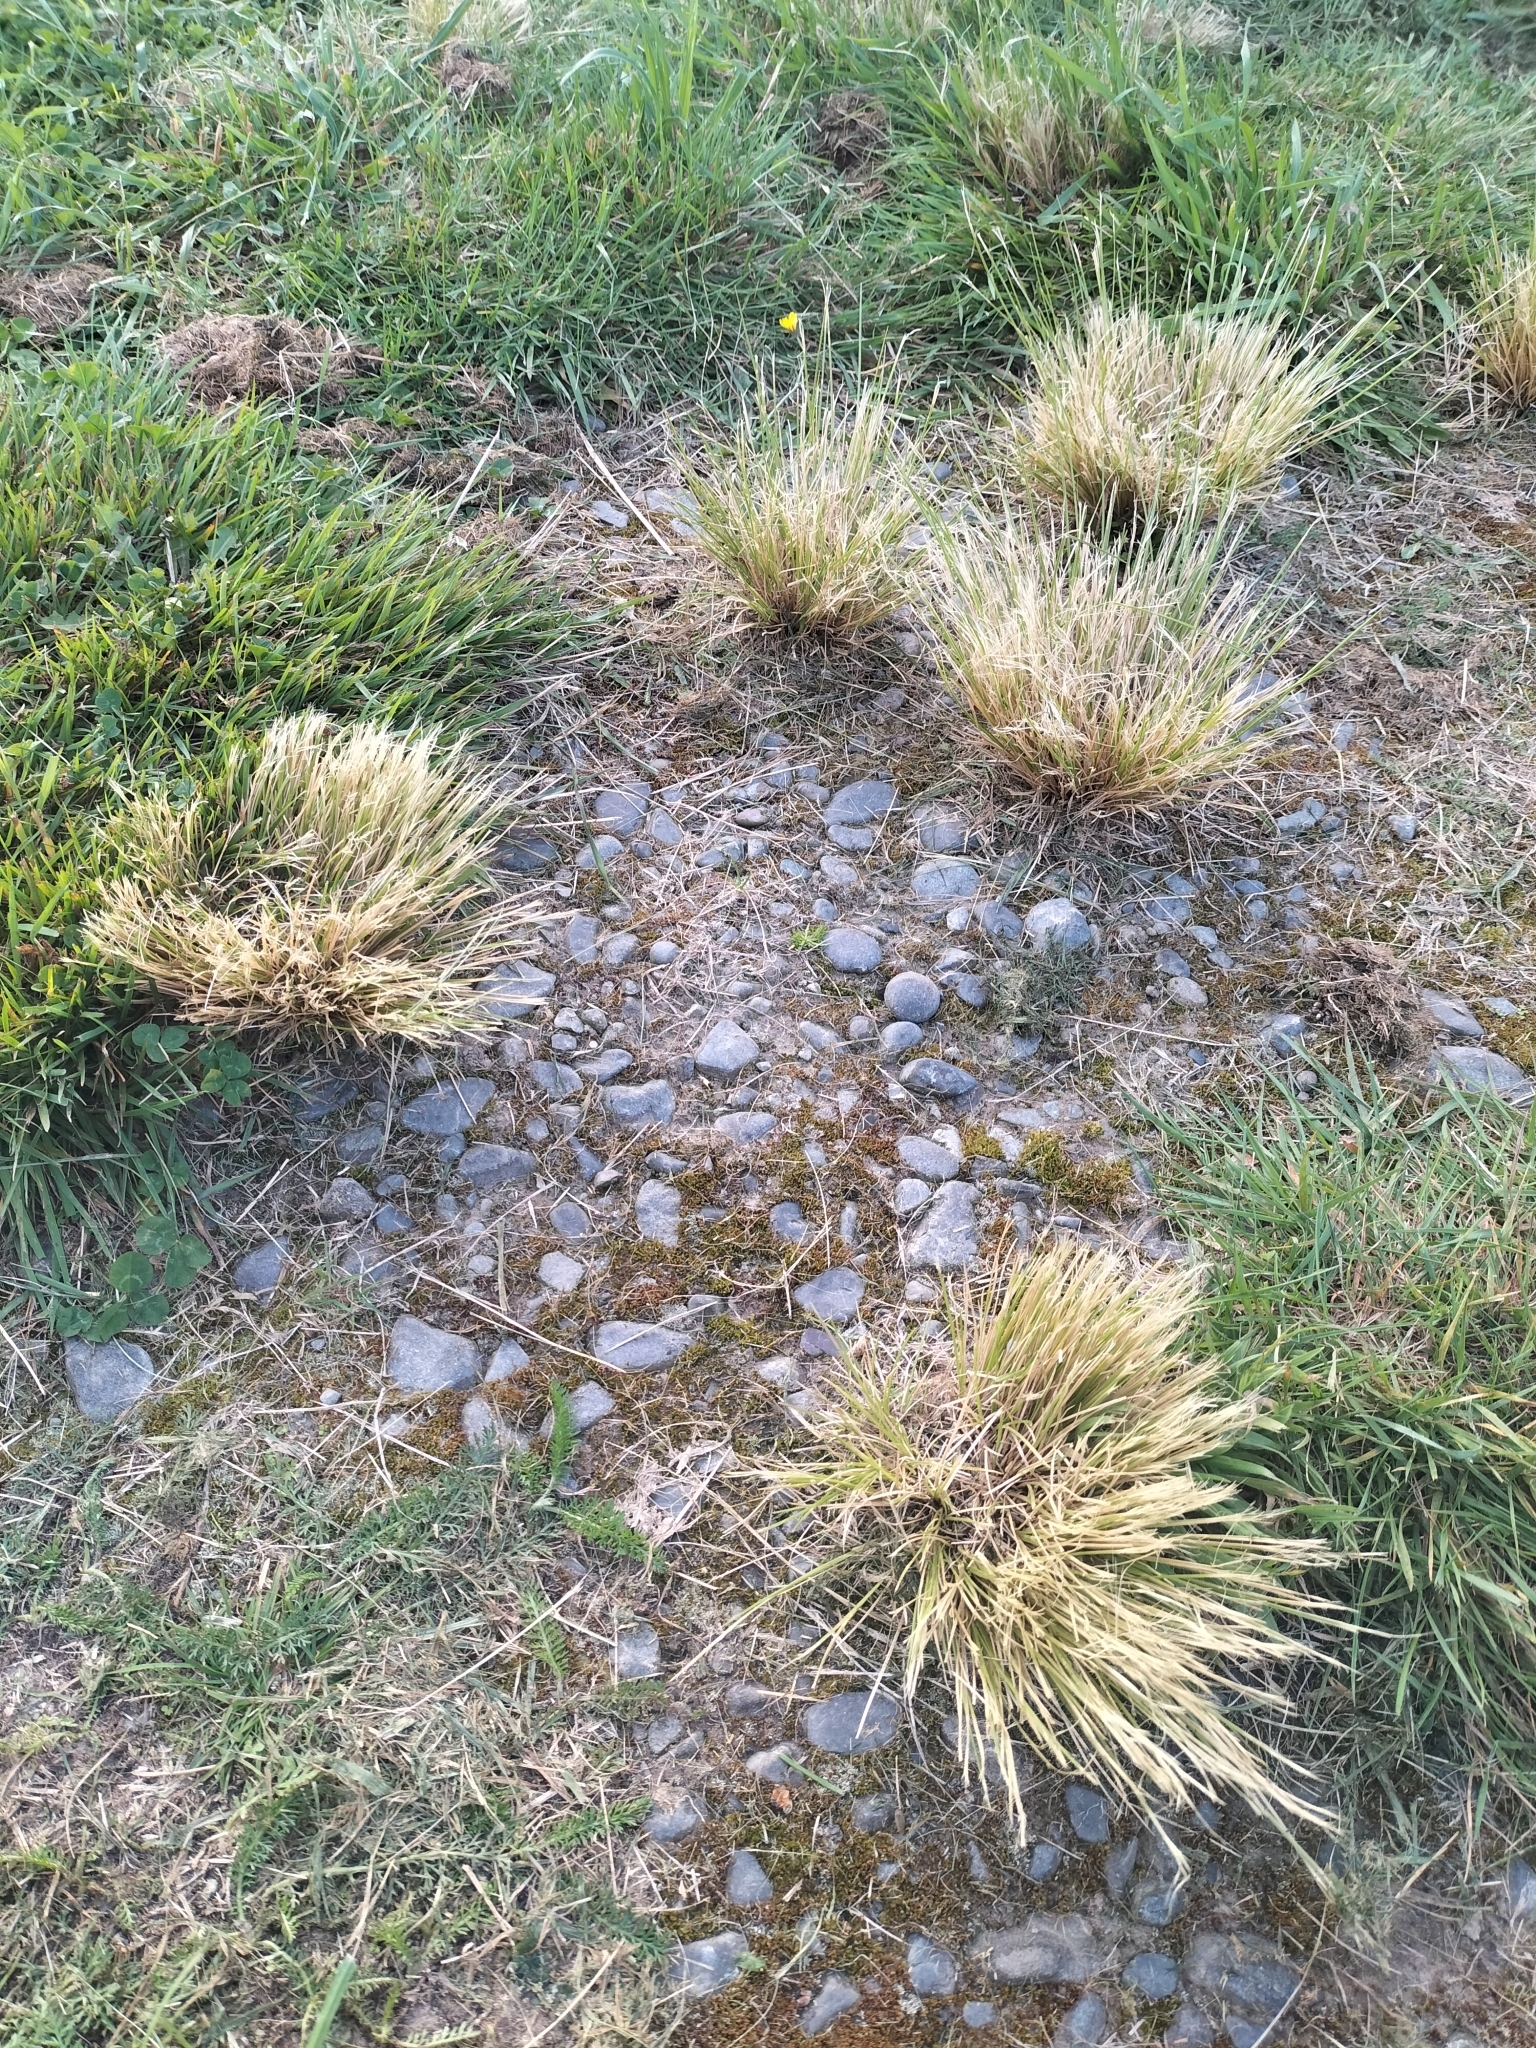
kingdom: Plantae
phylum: Tracheophyta
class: Liliopsida
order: Poales
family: Poaceae
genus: Poa
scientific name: Poa cita
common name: Silver tussock
